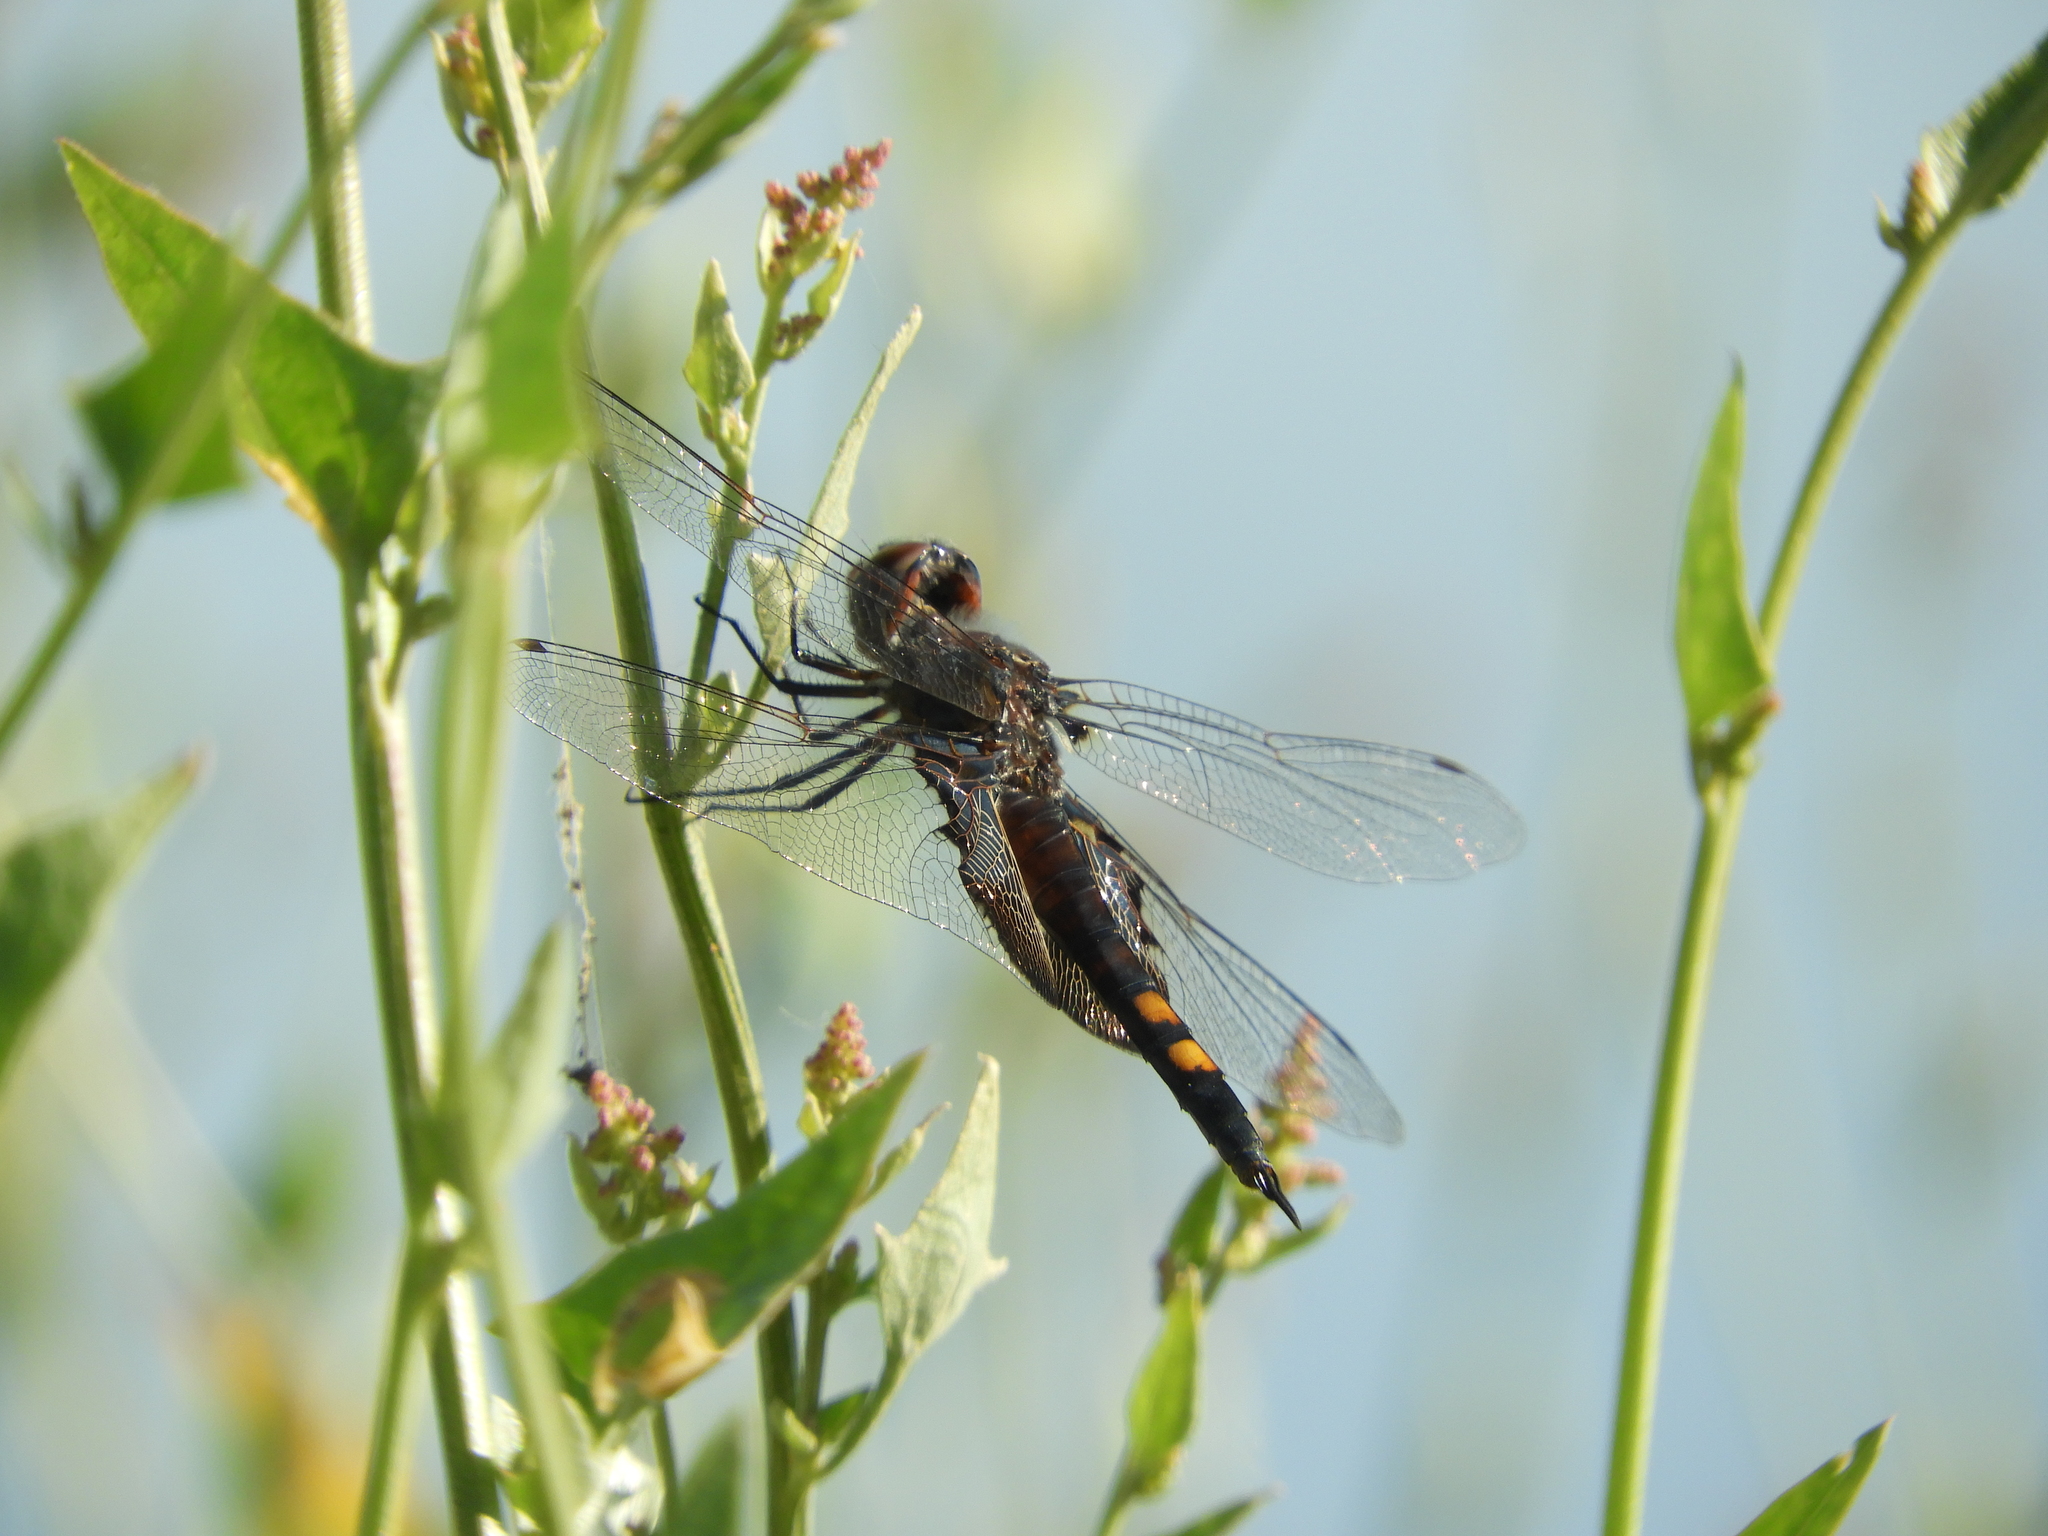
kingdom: Animalia
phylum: Arthropoda
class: Insecta
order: Odonata
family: Libellulidae
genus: Tramea
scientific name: Tramea lacerata
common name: Black saddlebags
